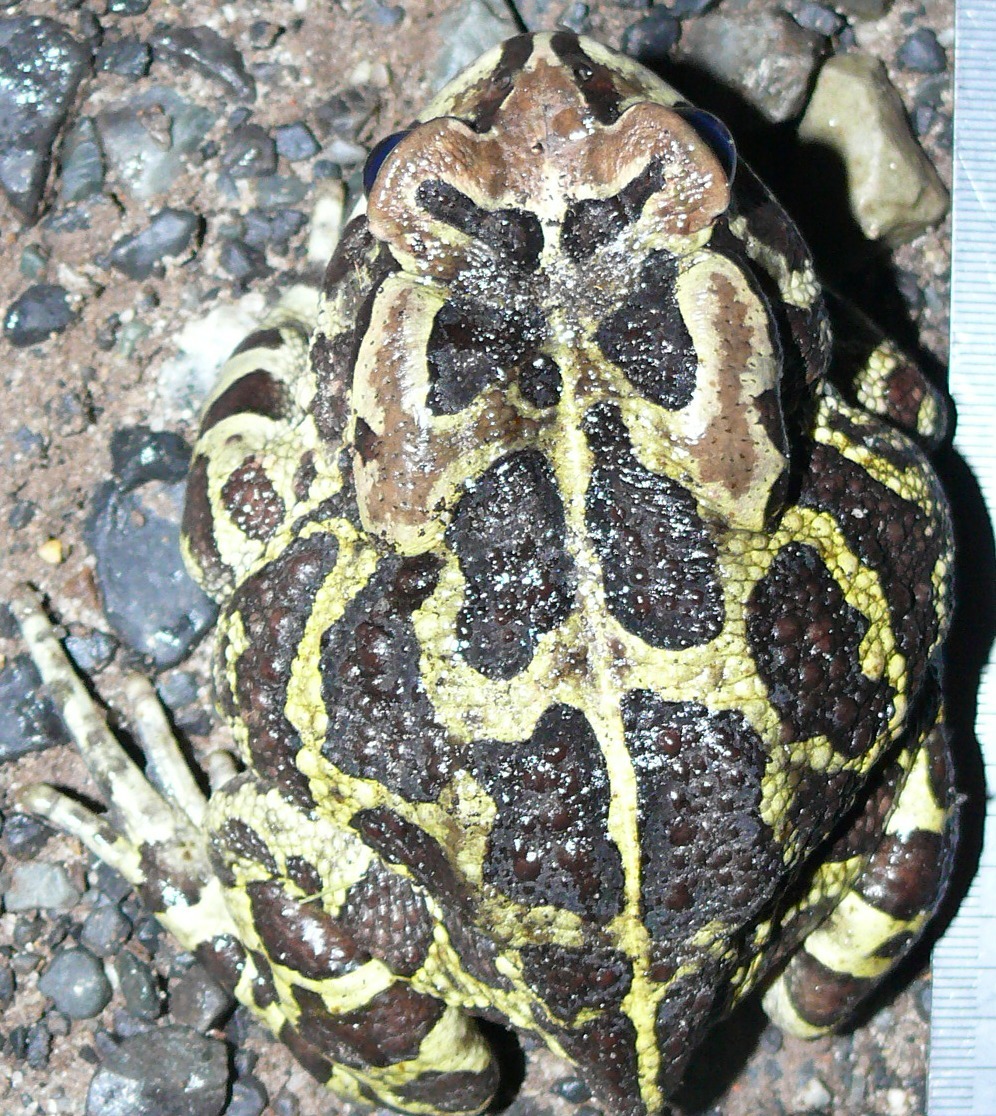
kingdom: Animalia
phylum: Chordata
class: Amphibia
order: Anura
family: Bufonidae
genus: Sclerophrys
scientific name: Sclerophrys pantherina
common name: Panther toad
